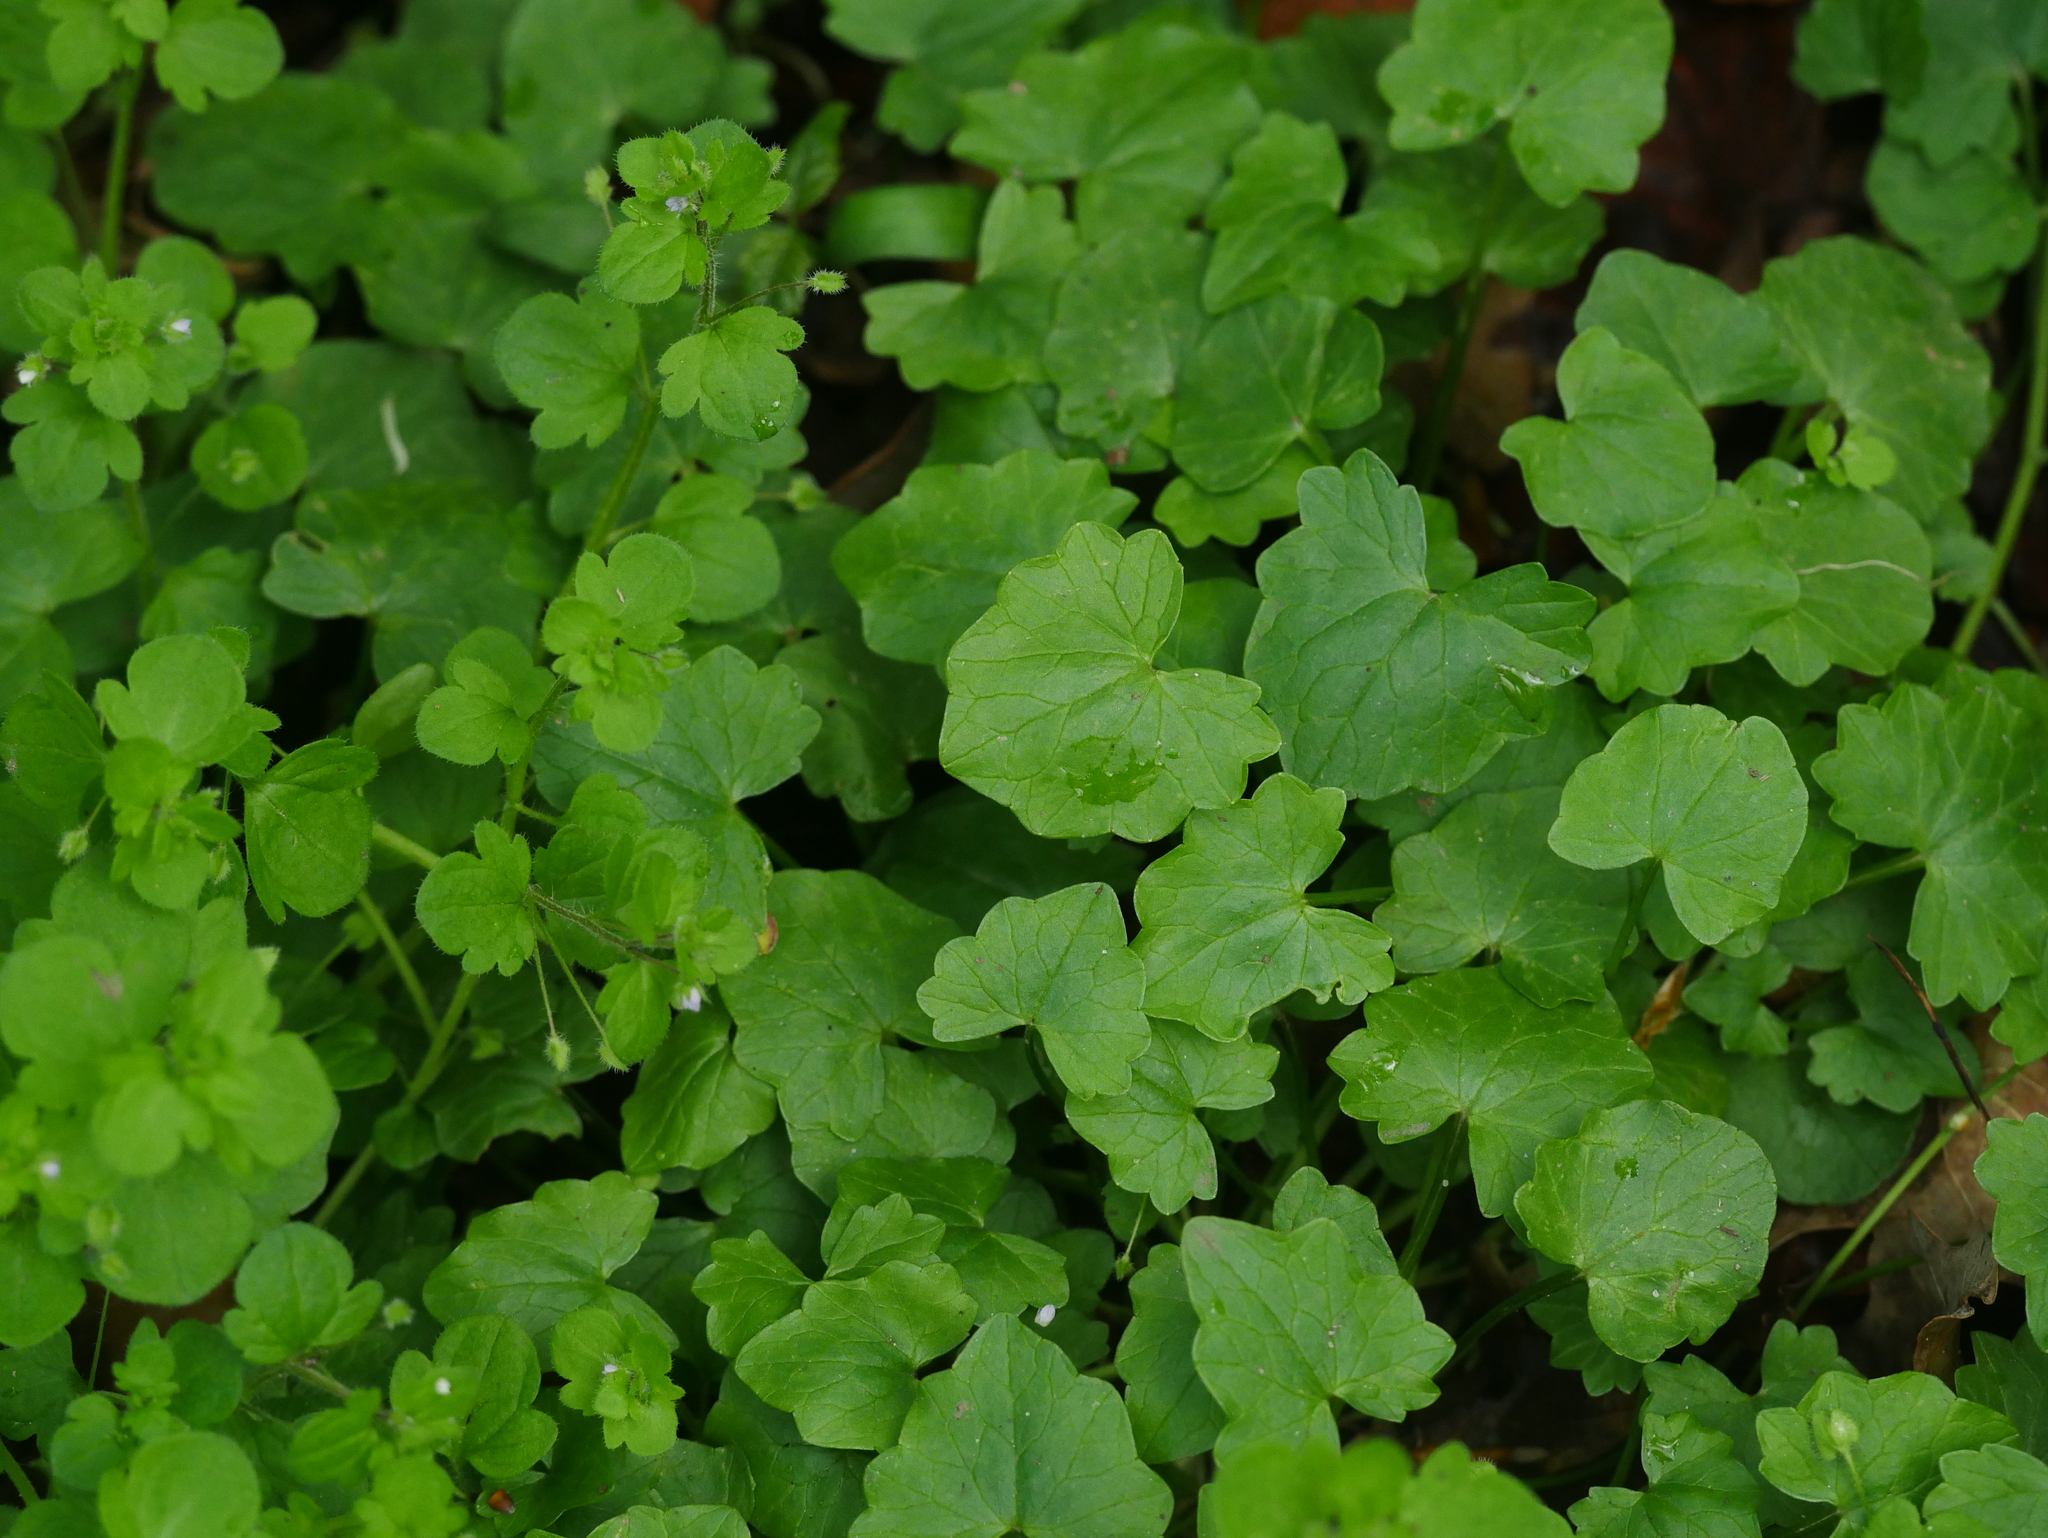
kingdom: Plantae
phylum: Tracheophyta
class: Magnoliopsida
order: Ranunculales
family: Ranunculaceae
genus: Ficaria
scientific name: Ficaria verna
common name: Lesser celandine
